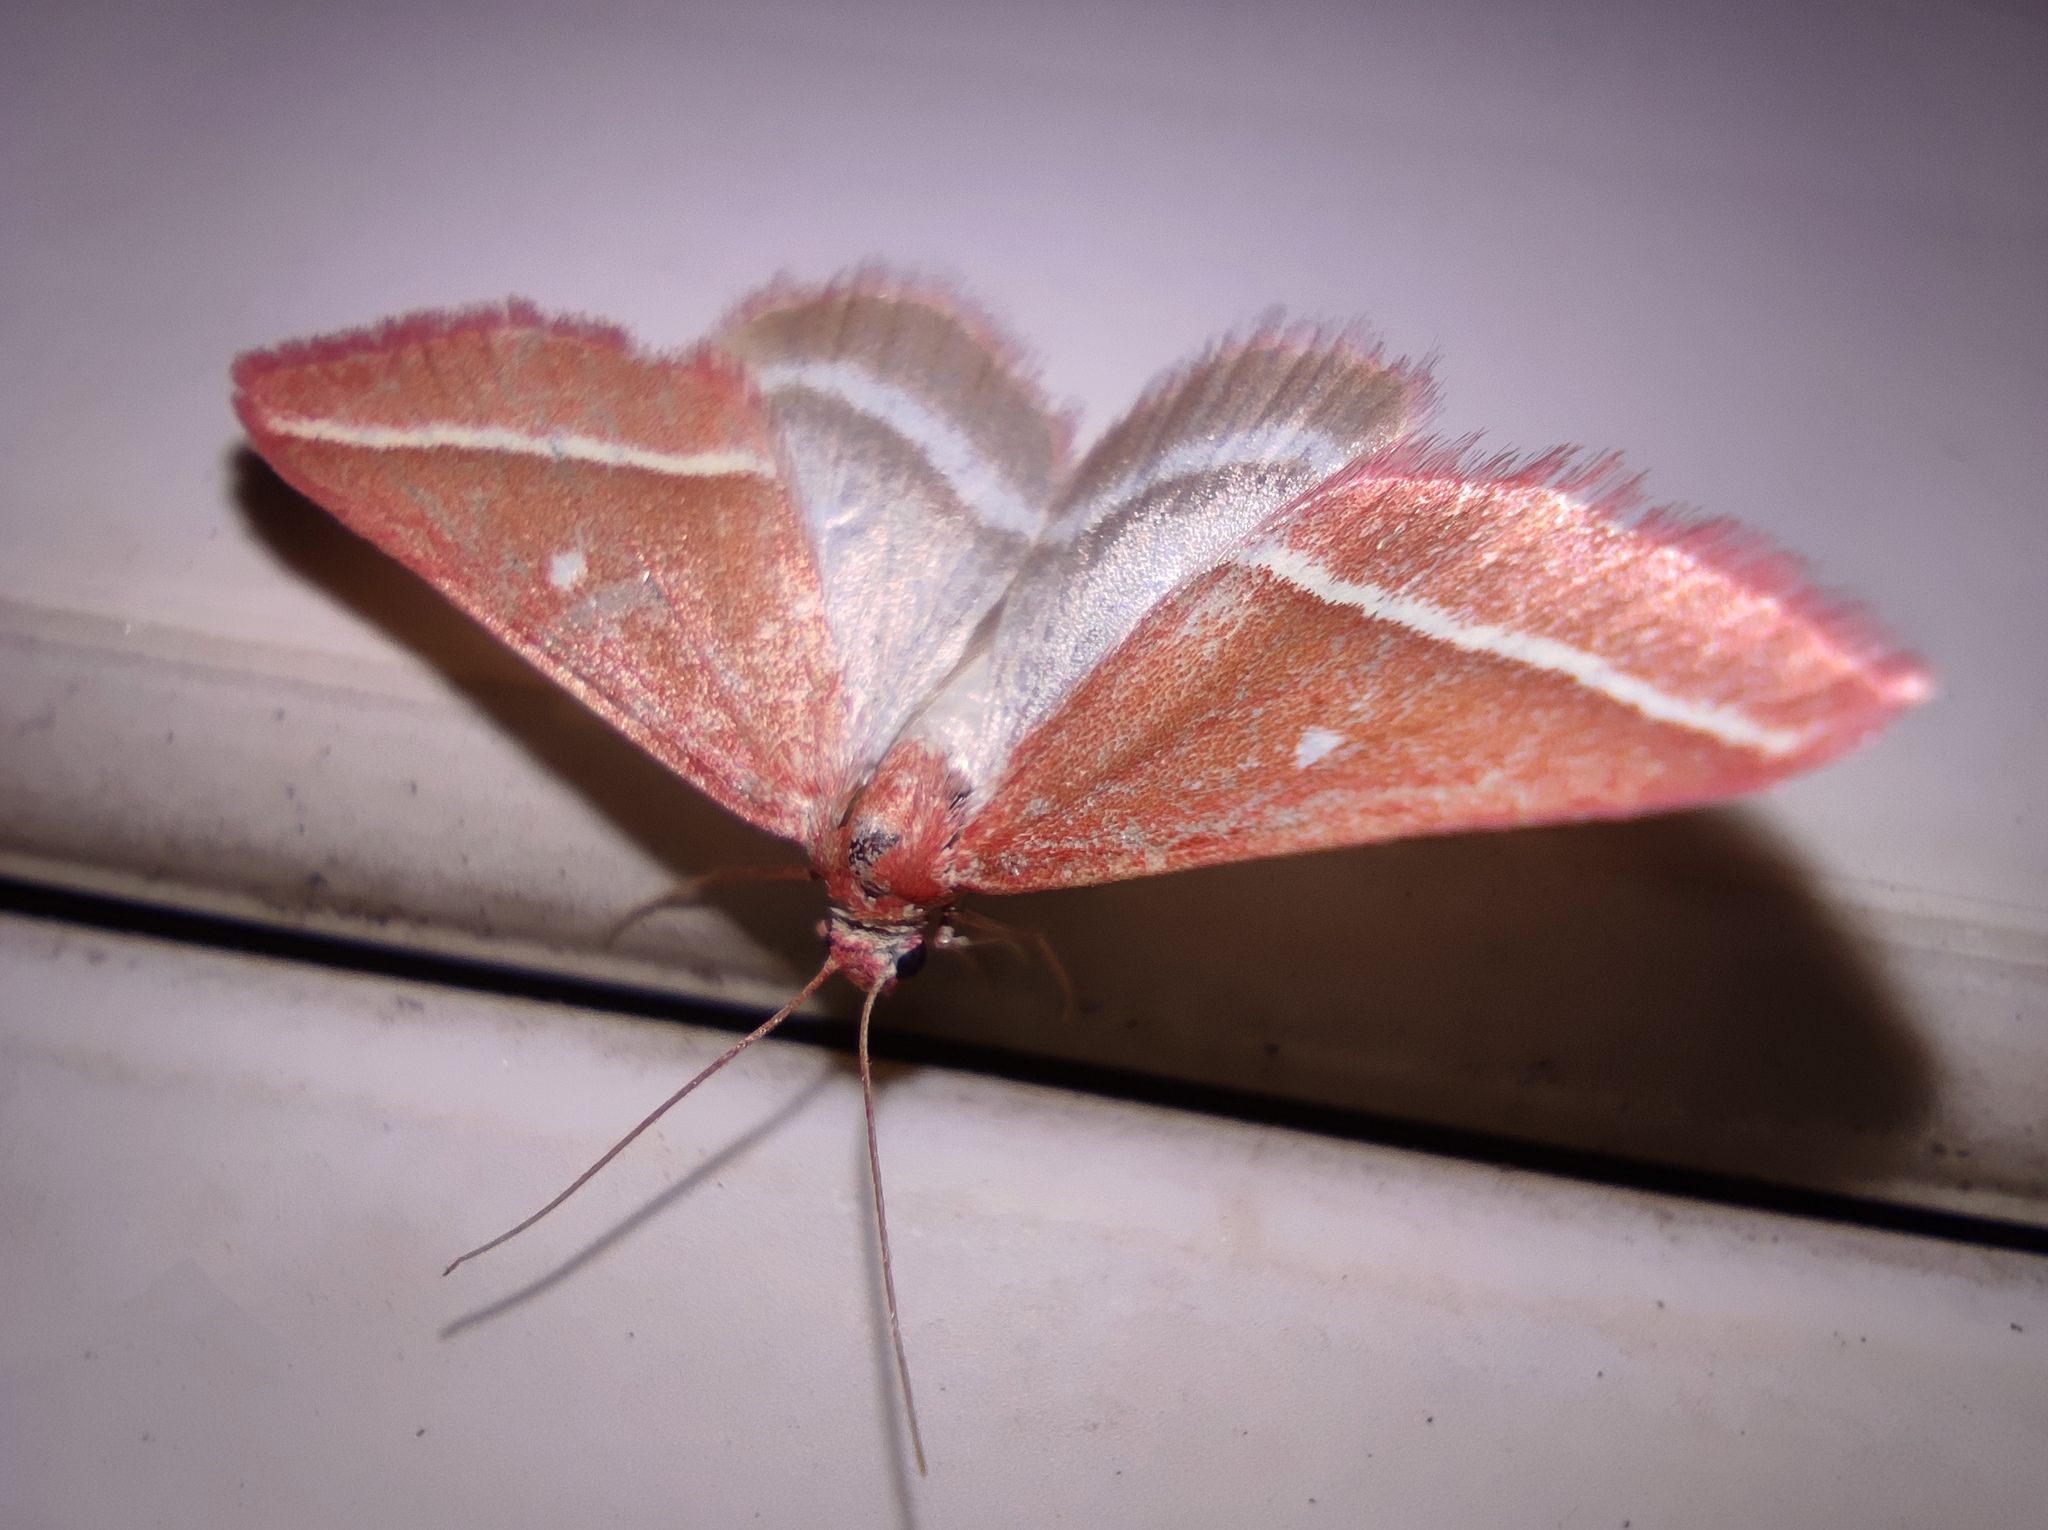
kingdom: Animalia
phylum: Arthropoda
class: Insecta
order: Lepidoptera
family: Geometridae
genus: Casilda
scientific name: Casilda antophilaria
